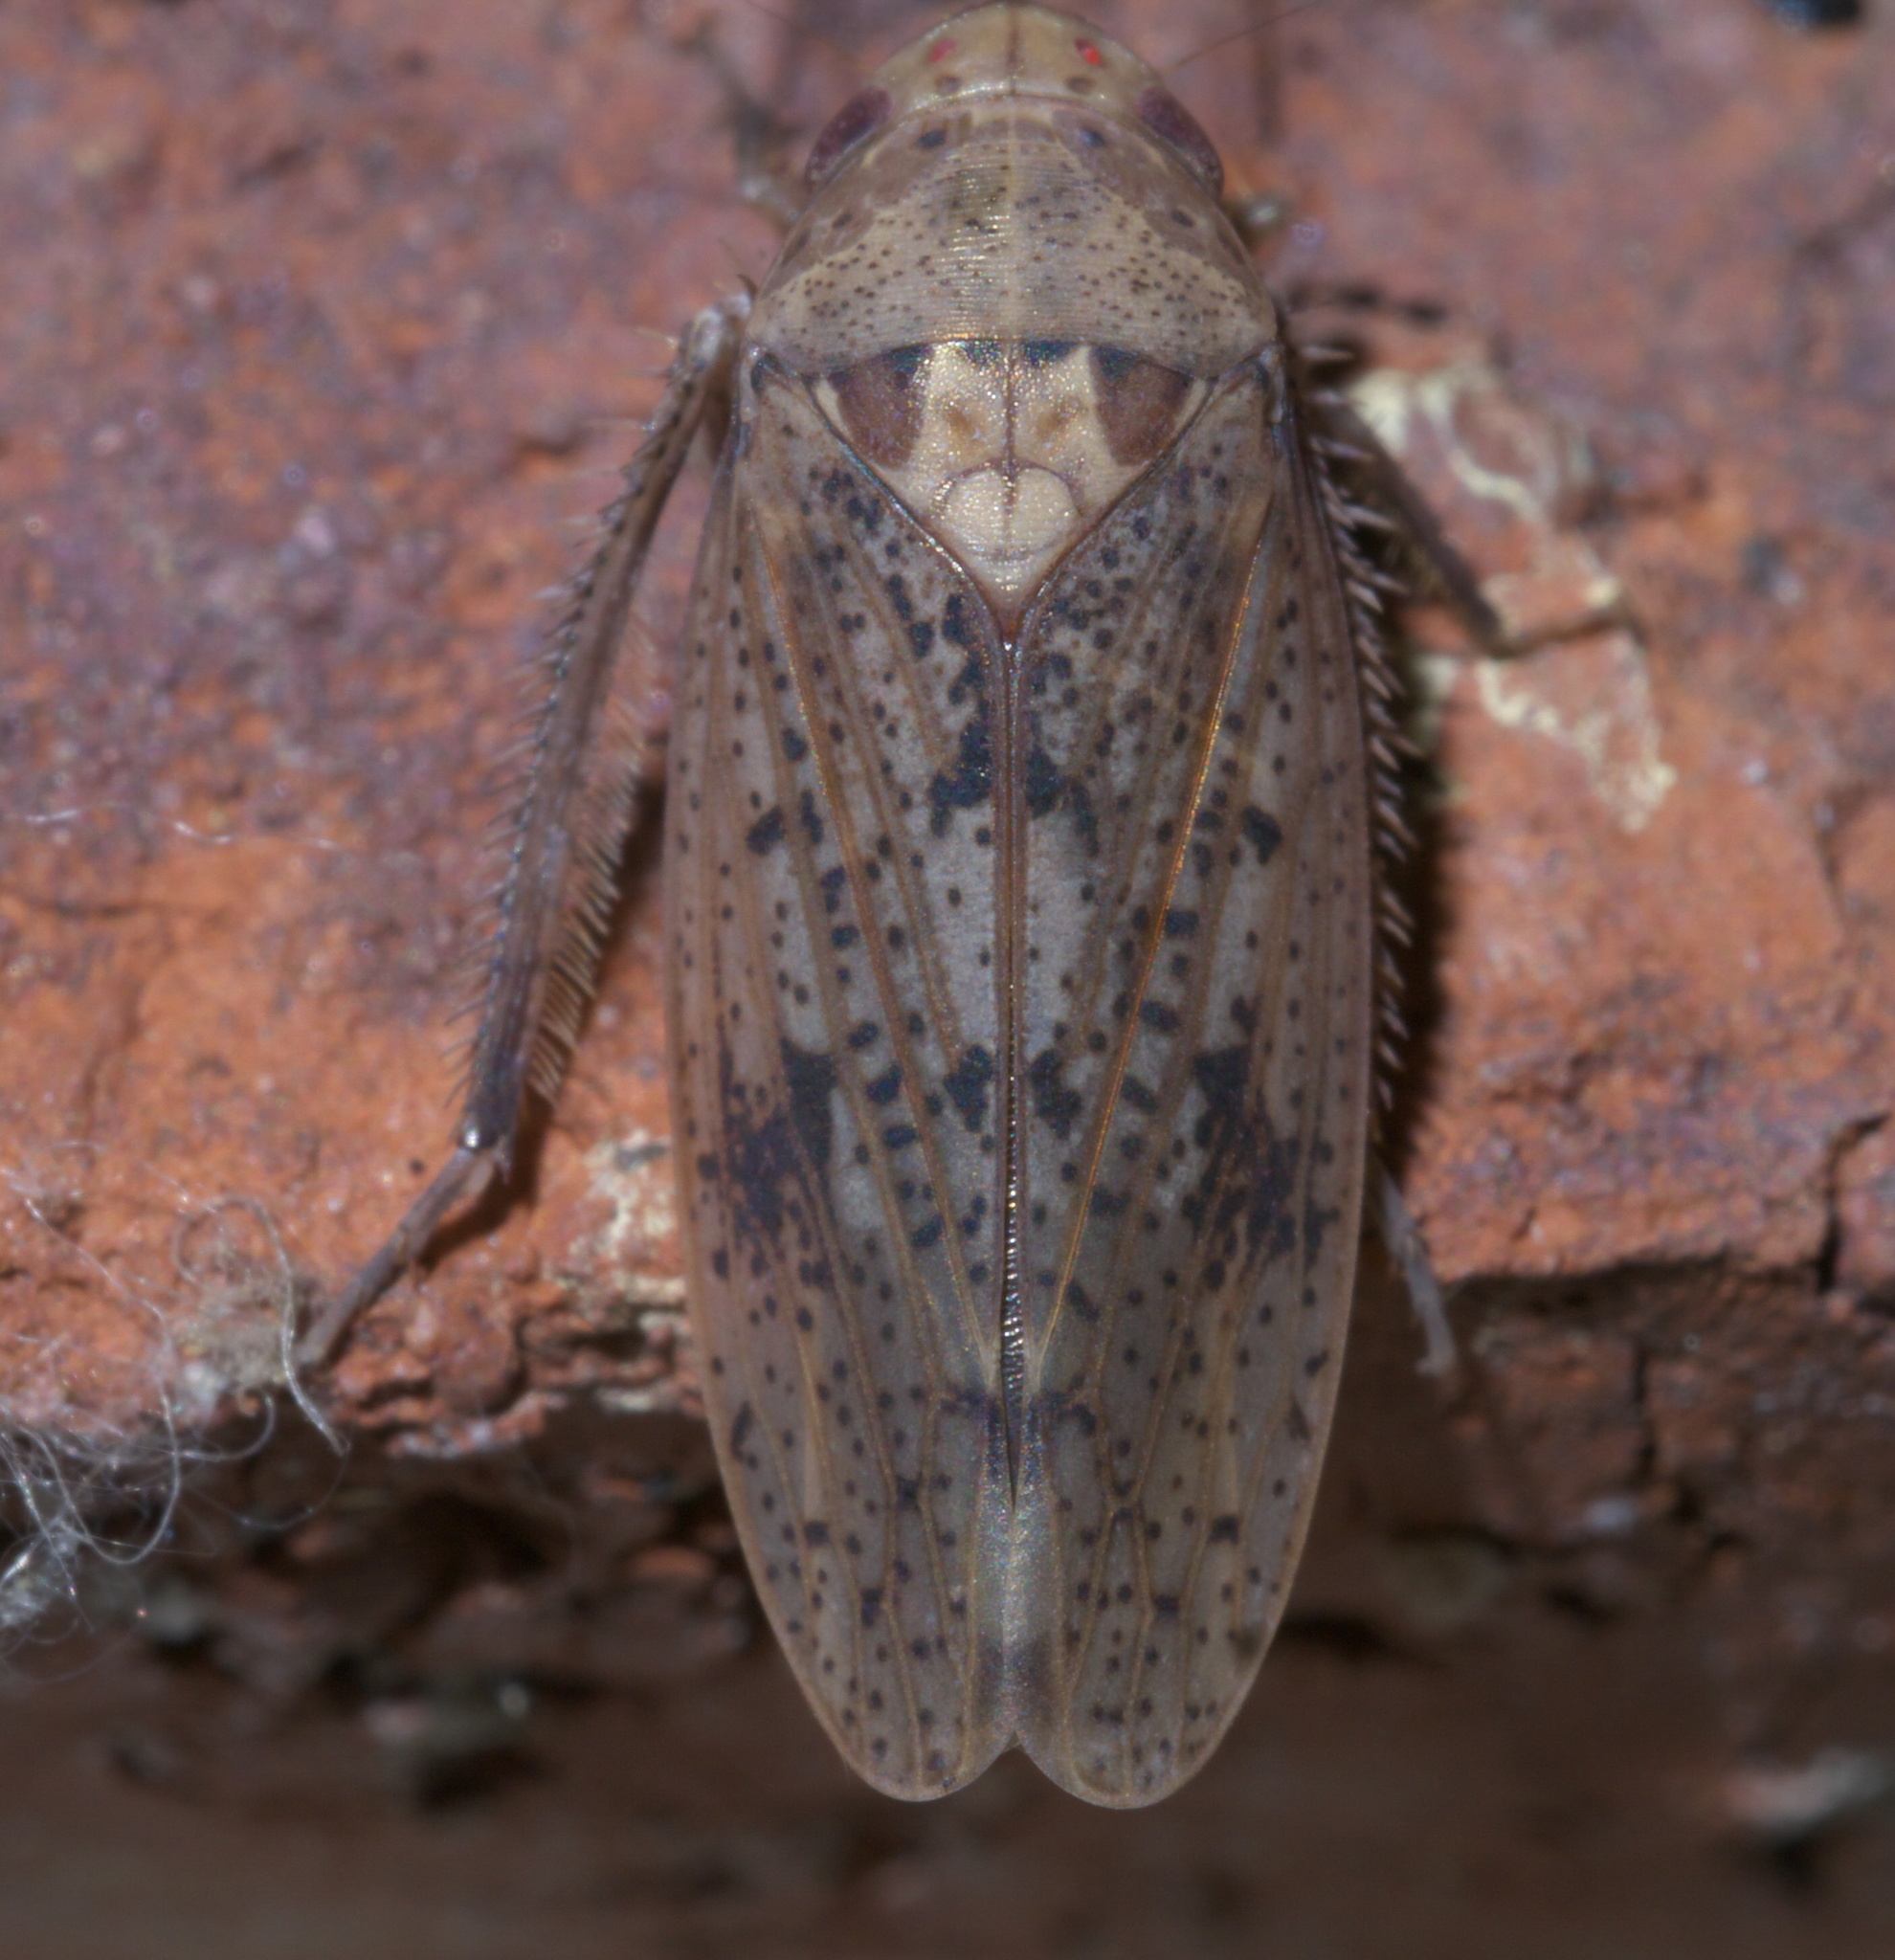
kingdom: Animalia
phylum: Arthropoda
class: Insecta
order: Hemiptera
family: Cicadellidae
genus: Ponana
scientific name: Ponana puncticollis
